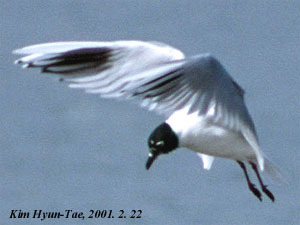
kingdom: Animalia
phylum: Chordata
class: Aves
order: Charadriiformes
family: Laridae
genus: Chroicocephalus
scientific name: Chroicocephalus saundersi
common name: Saunders's gull
